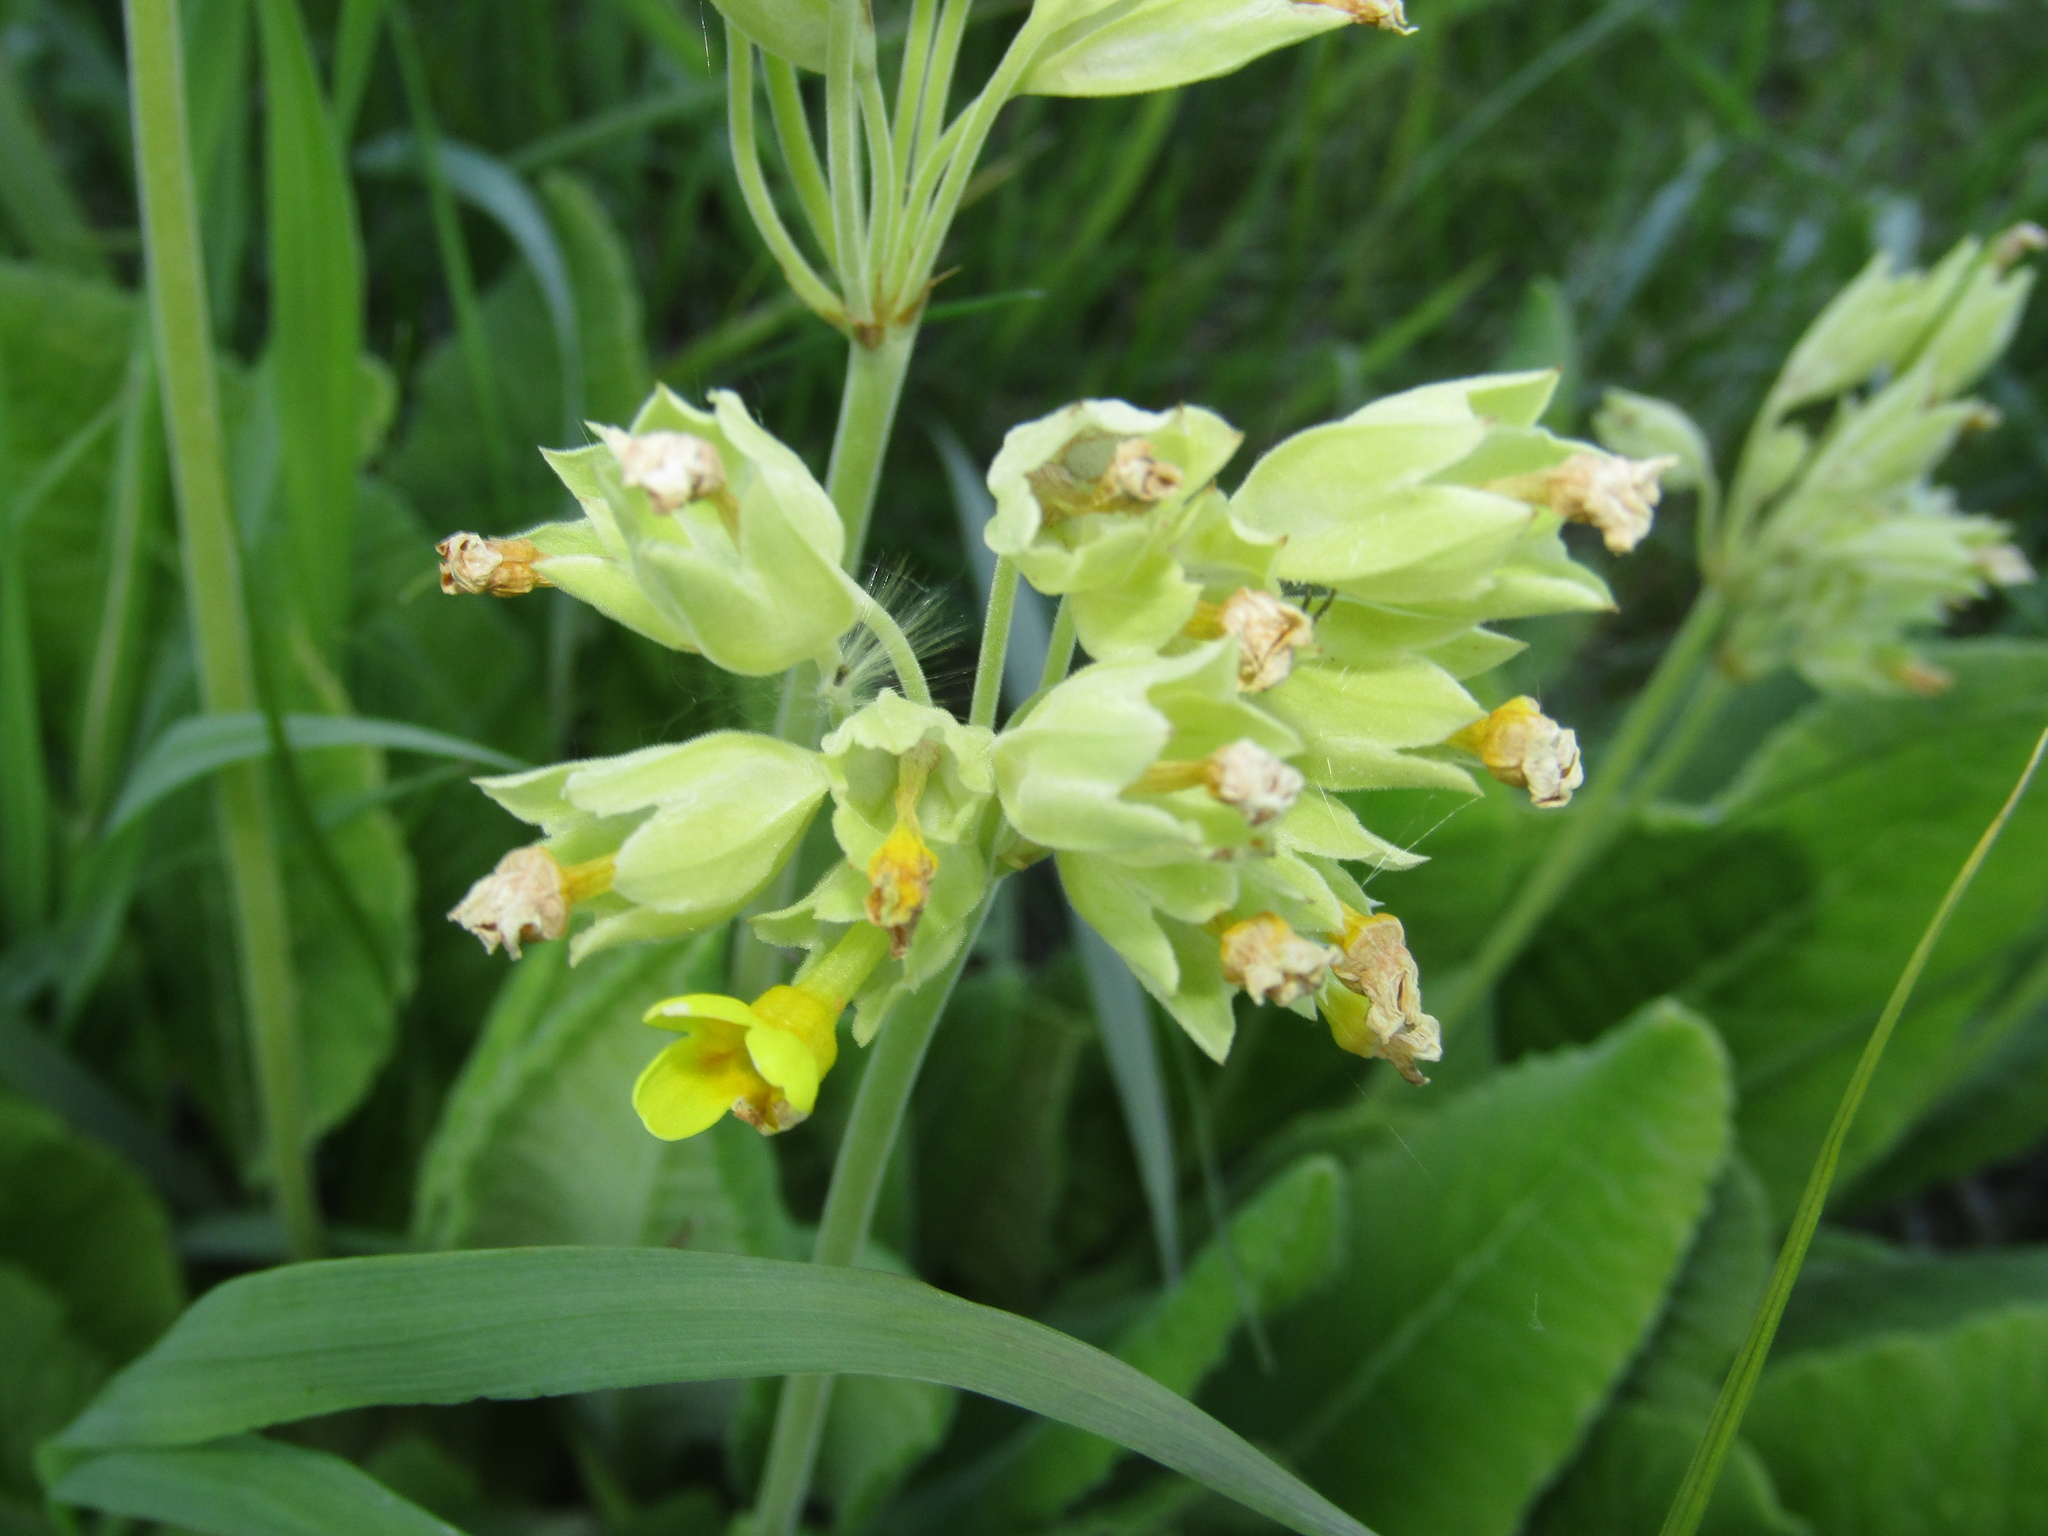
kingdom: Plantae
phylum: Tracheophyta
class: Magnoliopsida
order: Ericales
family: Primulaceae
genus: Primula
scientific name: Primula veris
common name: Cowslip
